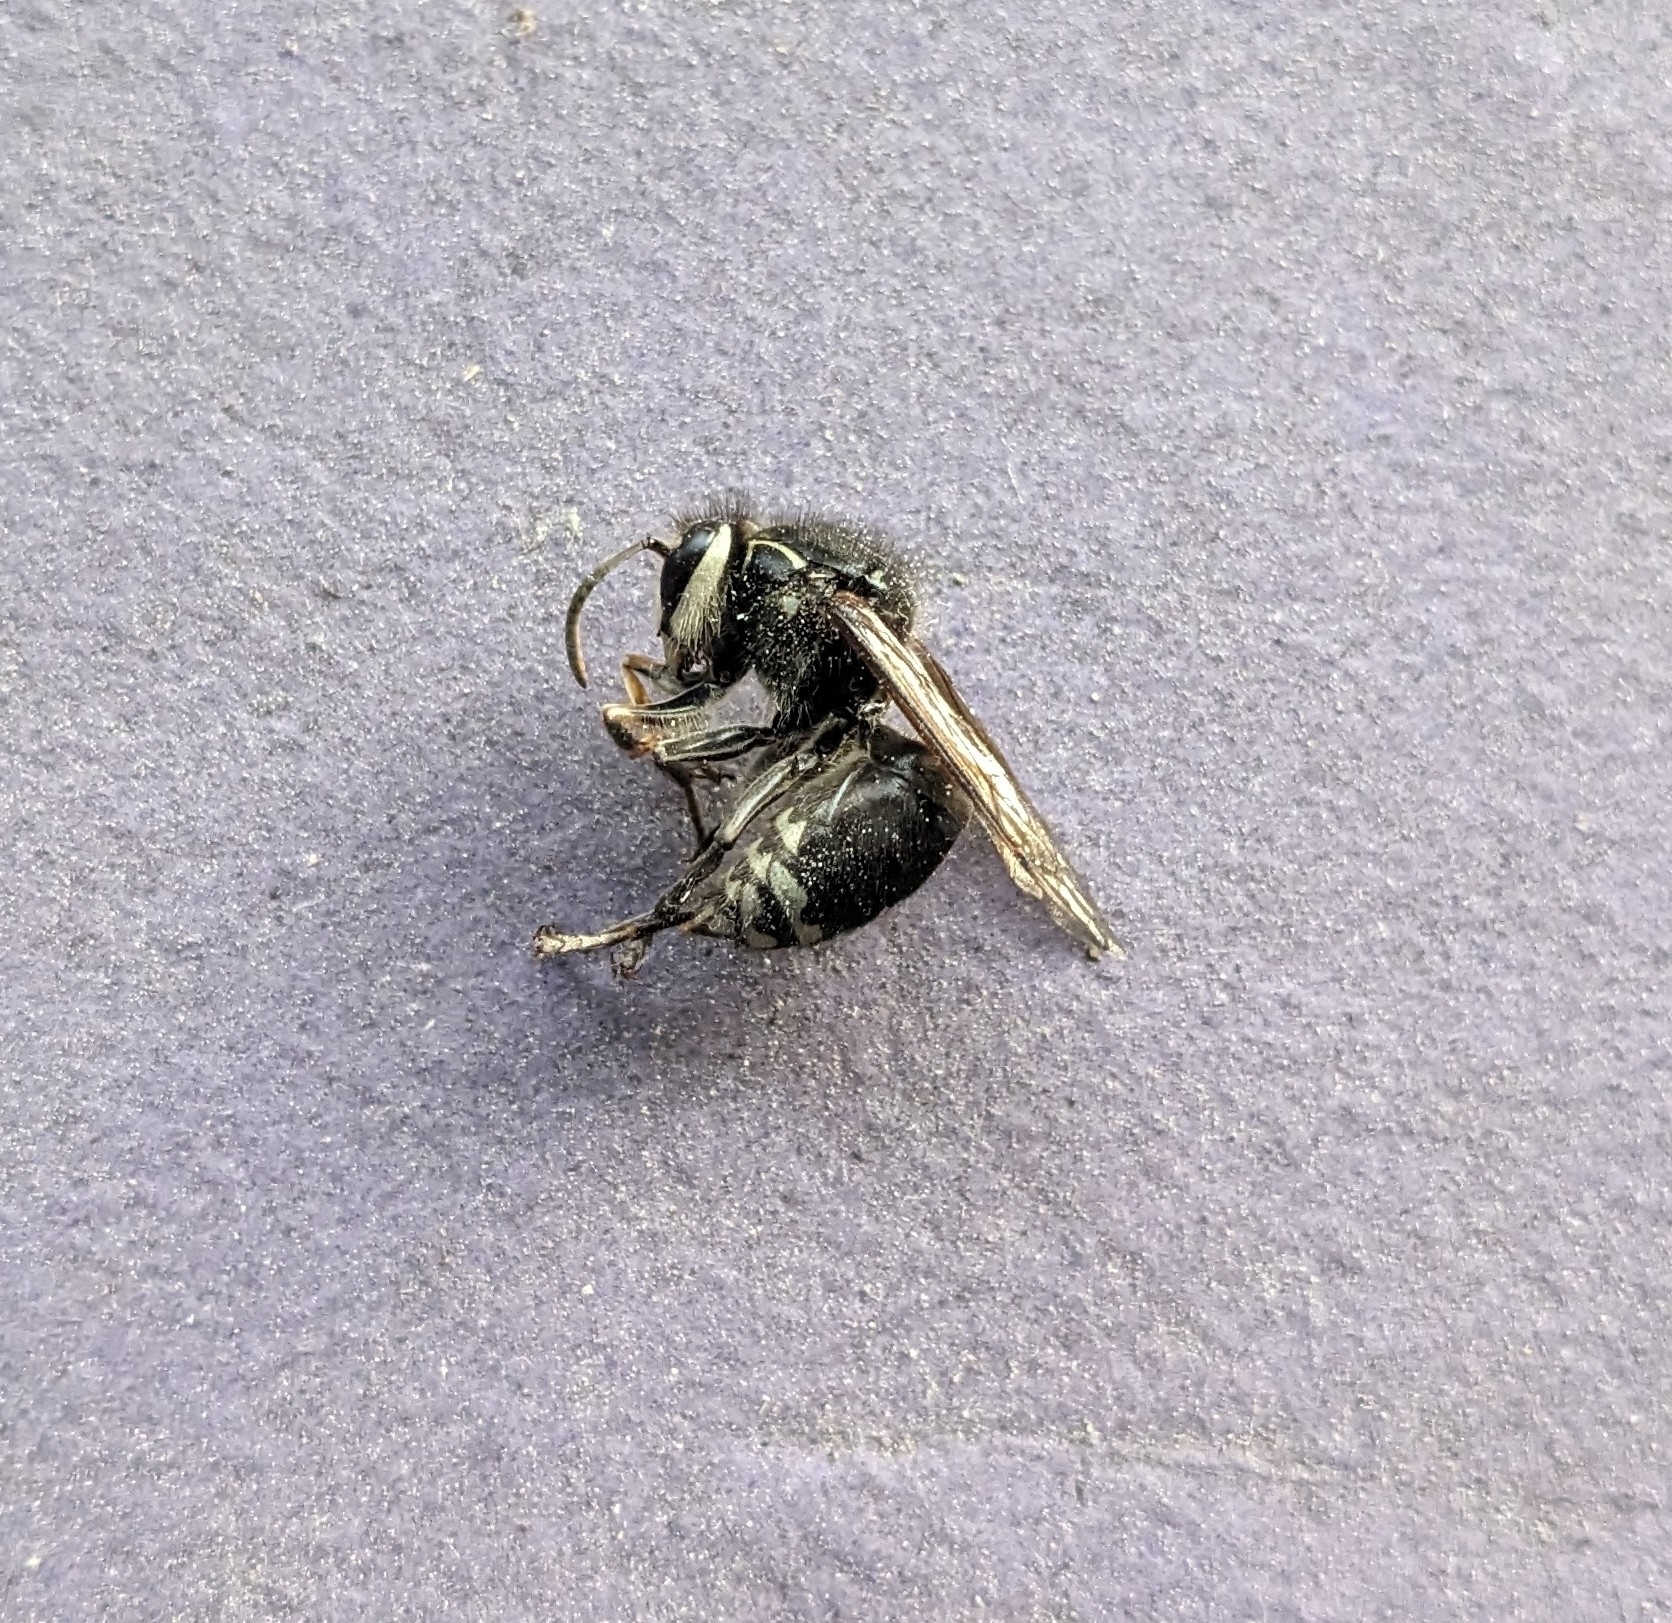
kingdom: Animalia
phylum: Arthropoda
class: Insecta
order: Hymenoptera
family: Vespidae
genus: Dolichovespula
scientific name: Dolichovespula maculata
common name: Bald-faced hornet
